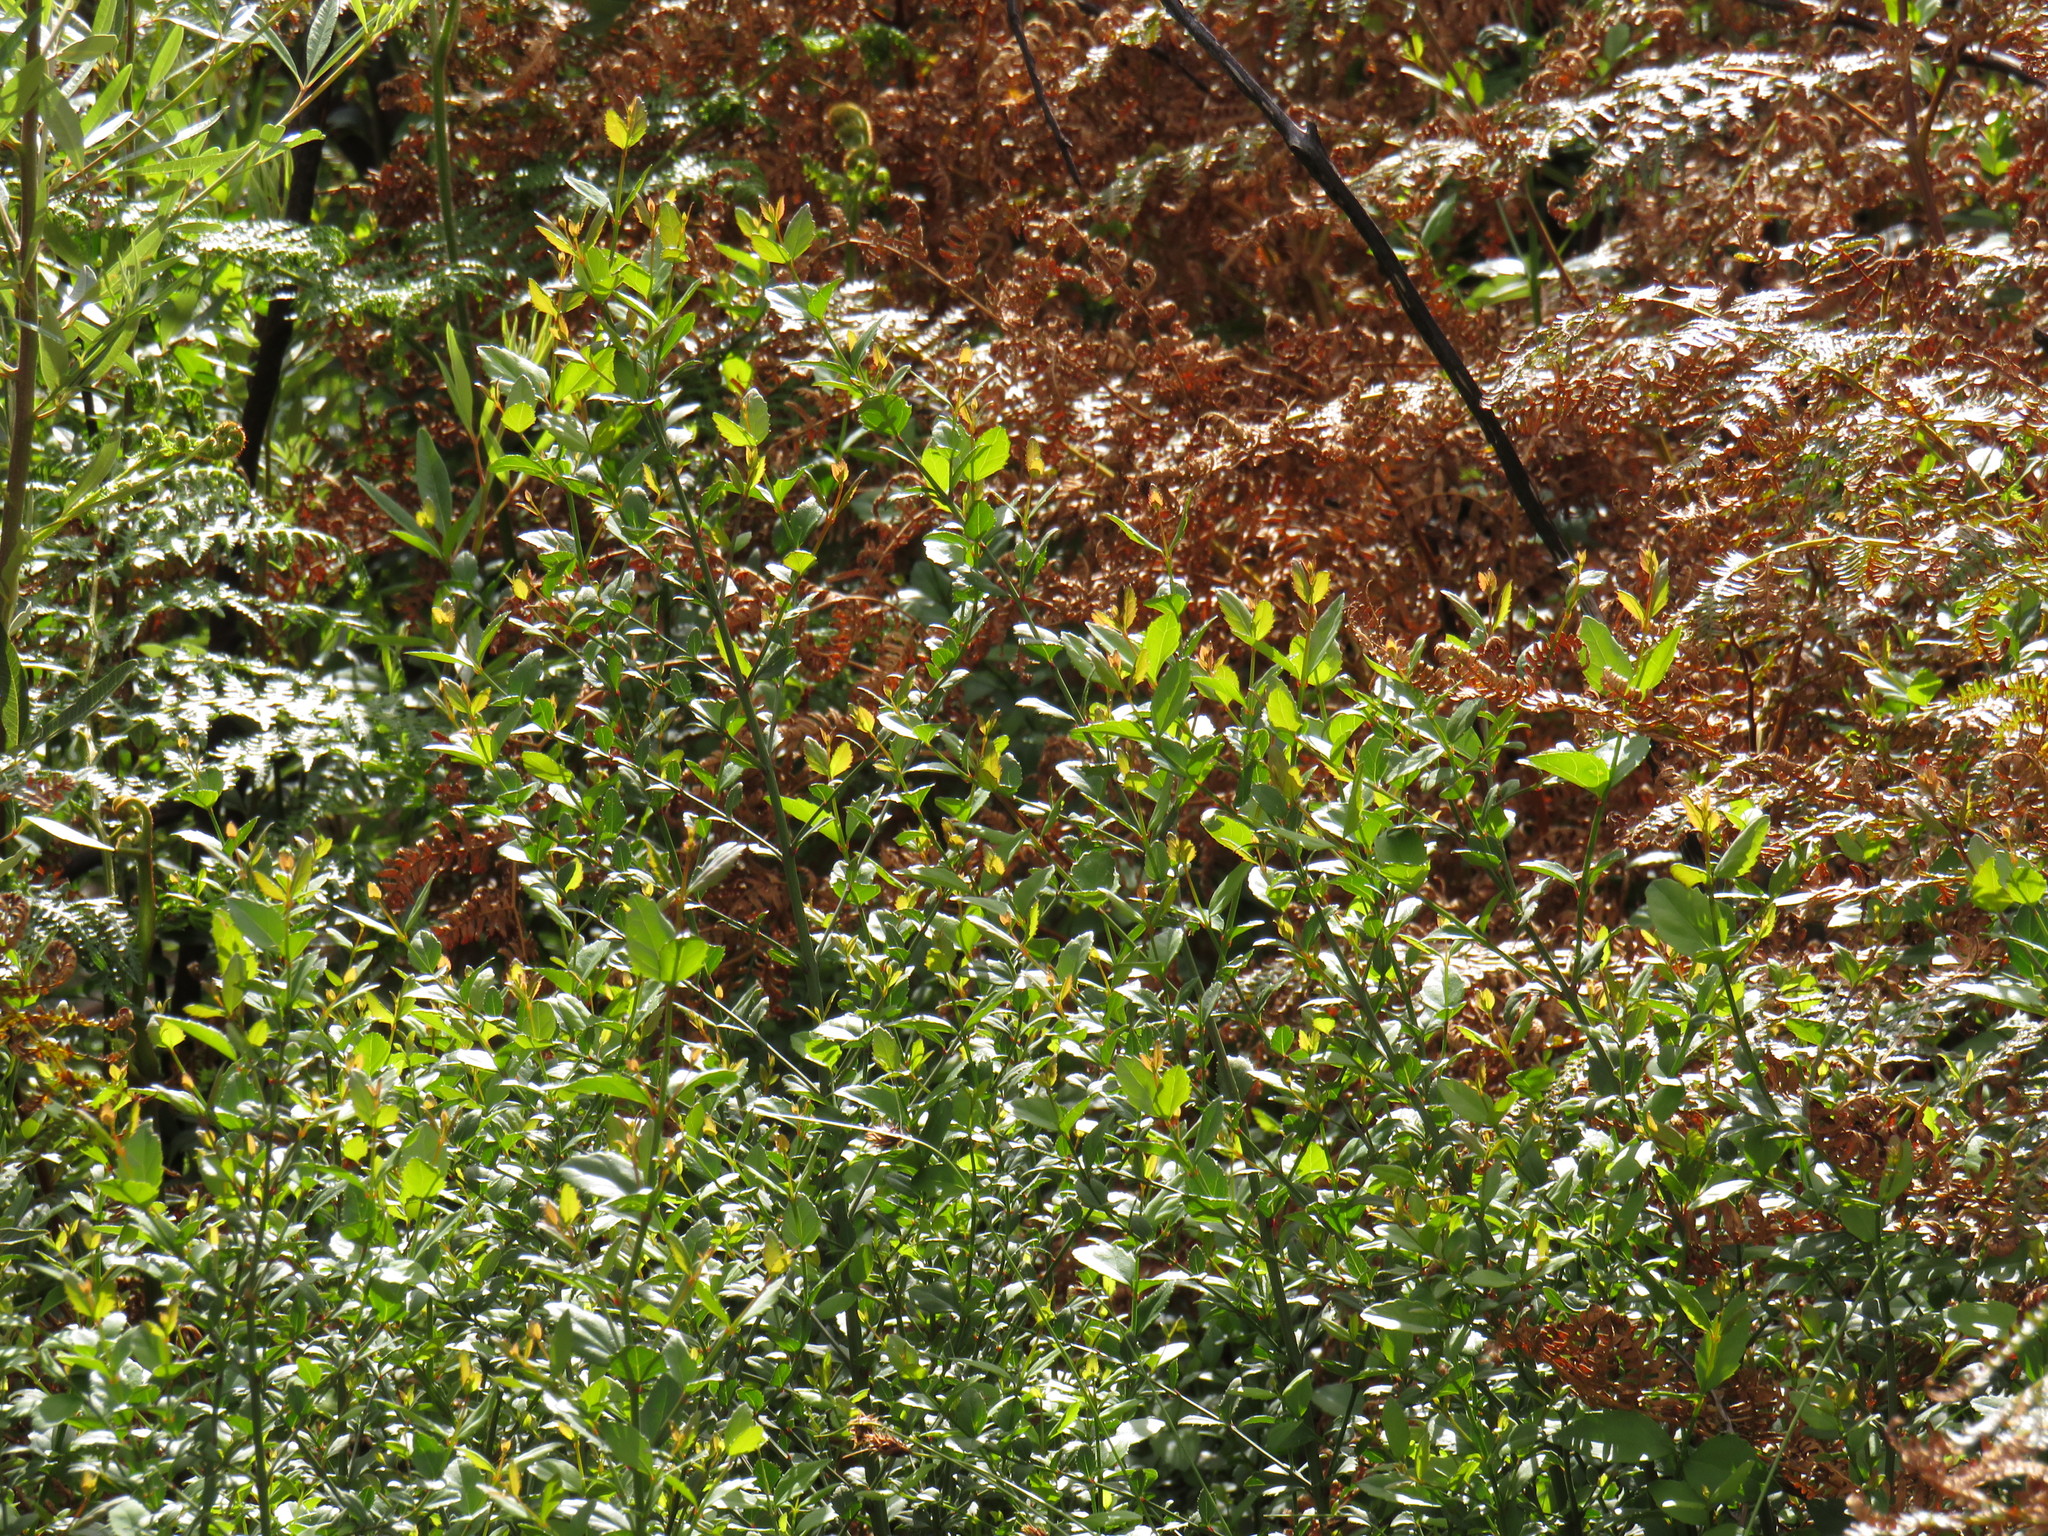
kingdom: Plantae
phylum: Tracheophyta
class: Magnoliopsida
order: Lamiales
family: Stilbaceae
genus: Halleria
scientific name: Halleria elliptica
